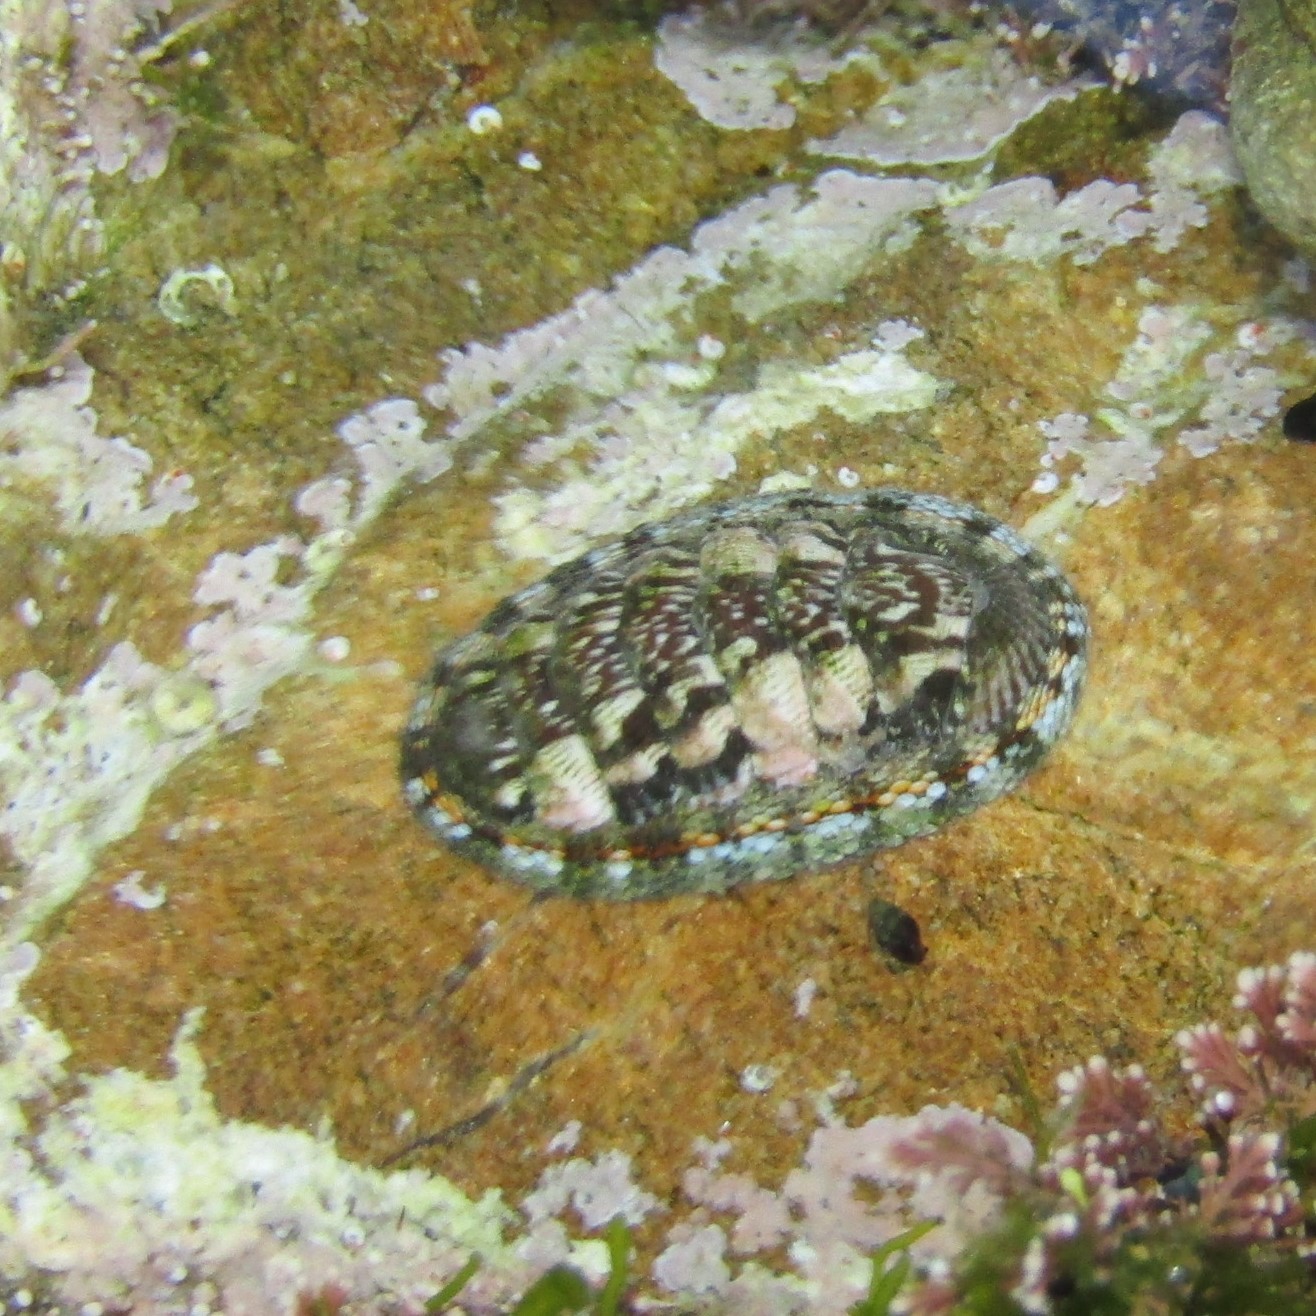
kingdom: Animalia
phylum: Mollusca
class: Polyplacophora
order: Chitonida
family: Chitonidae
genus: Sypharochiton
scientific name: Sypharochiton sinclairi
